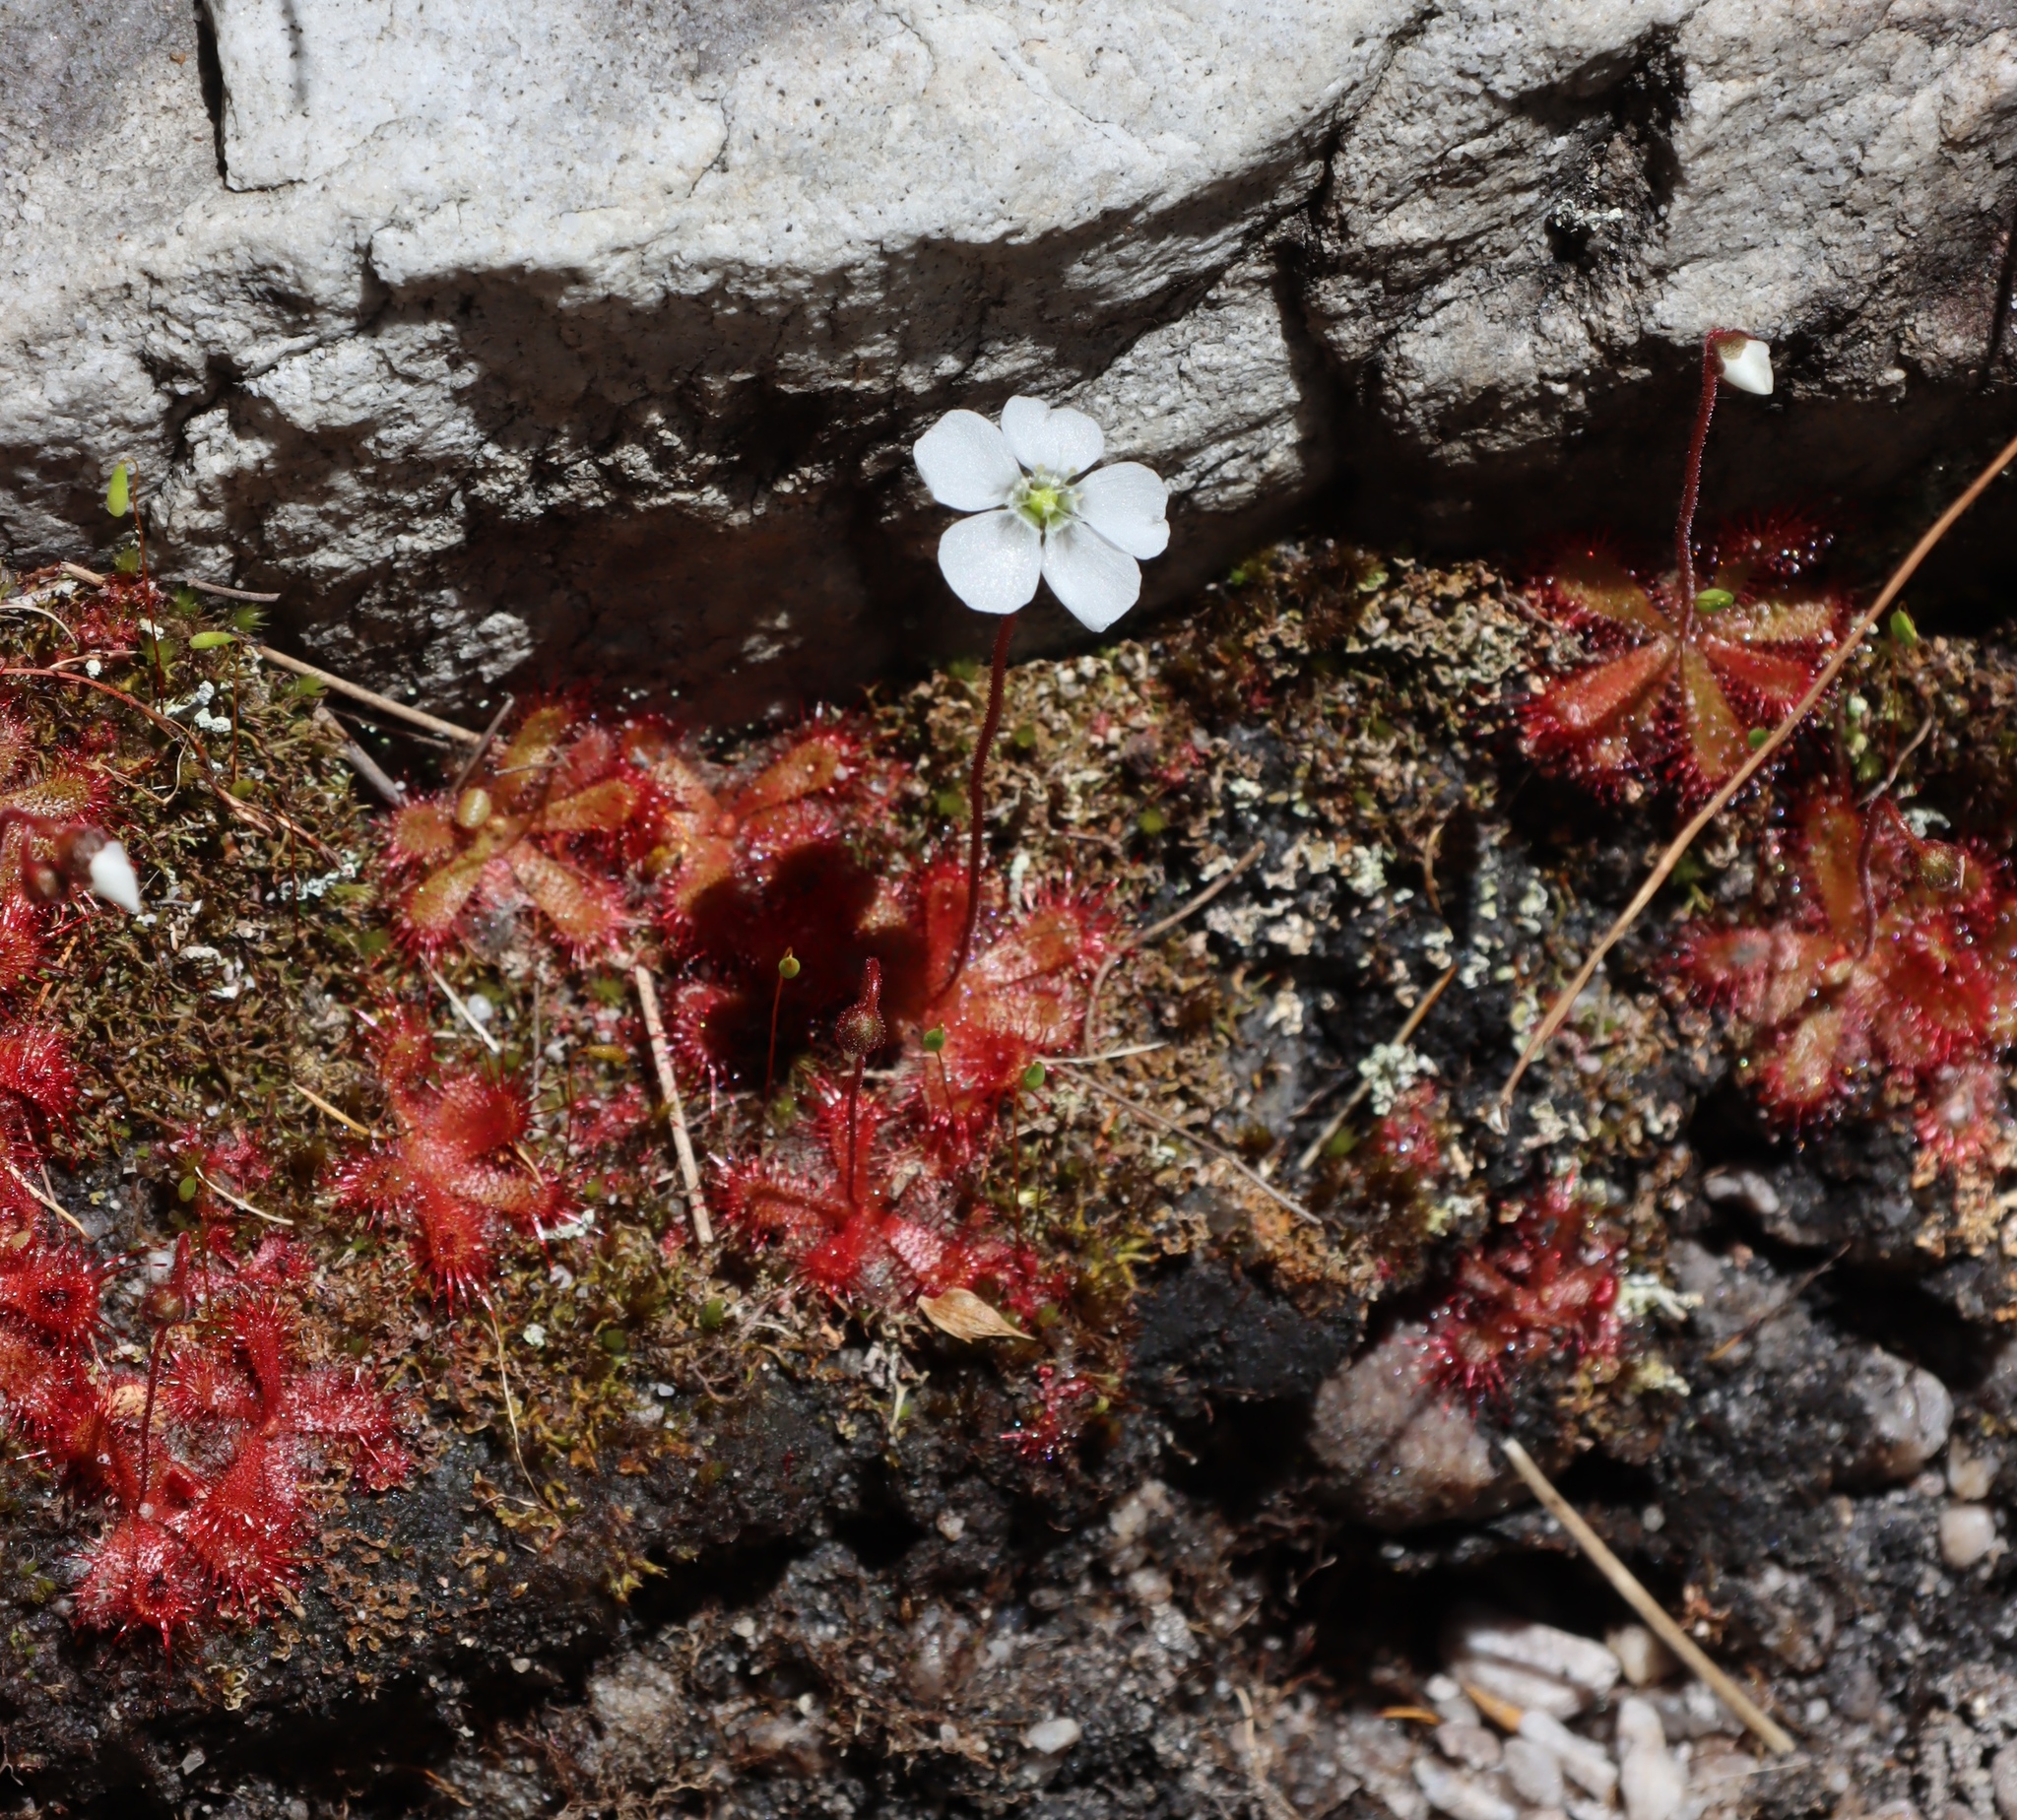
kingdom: Plantae
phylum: Tracheophyta
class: Magnoliopsida
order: Caryophyllales
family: Droseraceae
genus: Drosera
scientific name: Drosera trinervia
